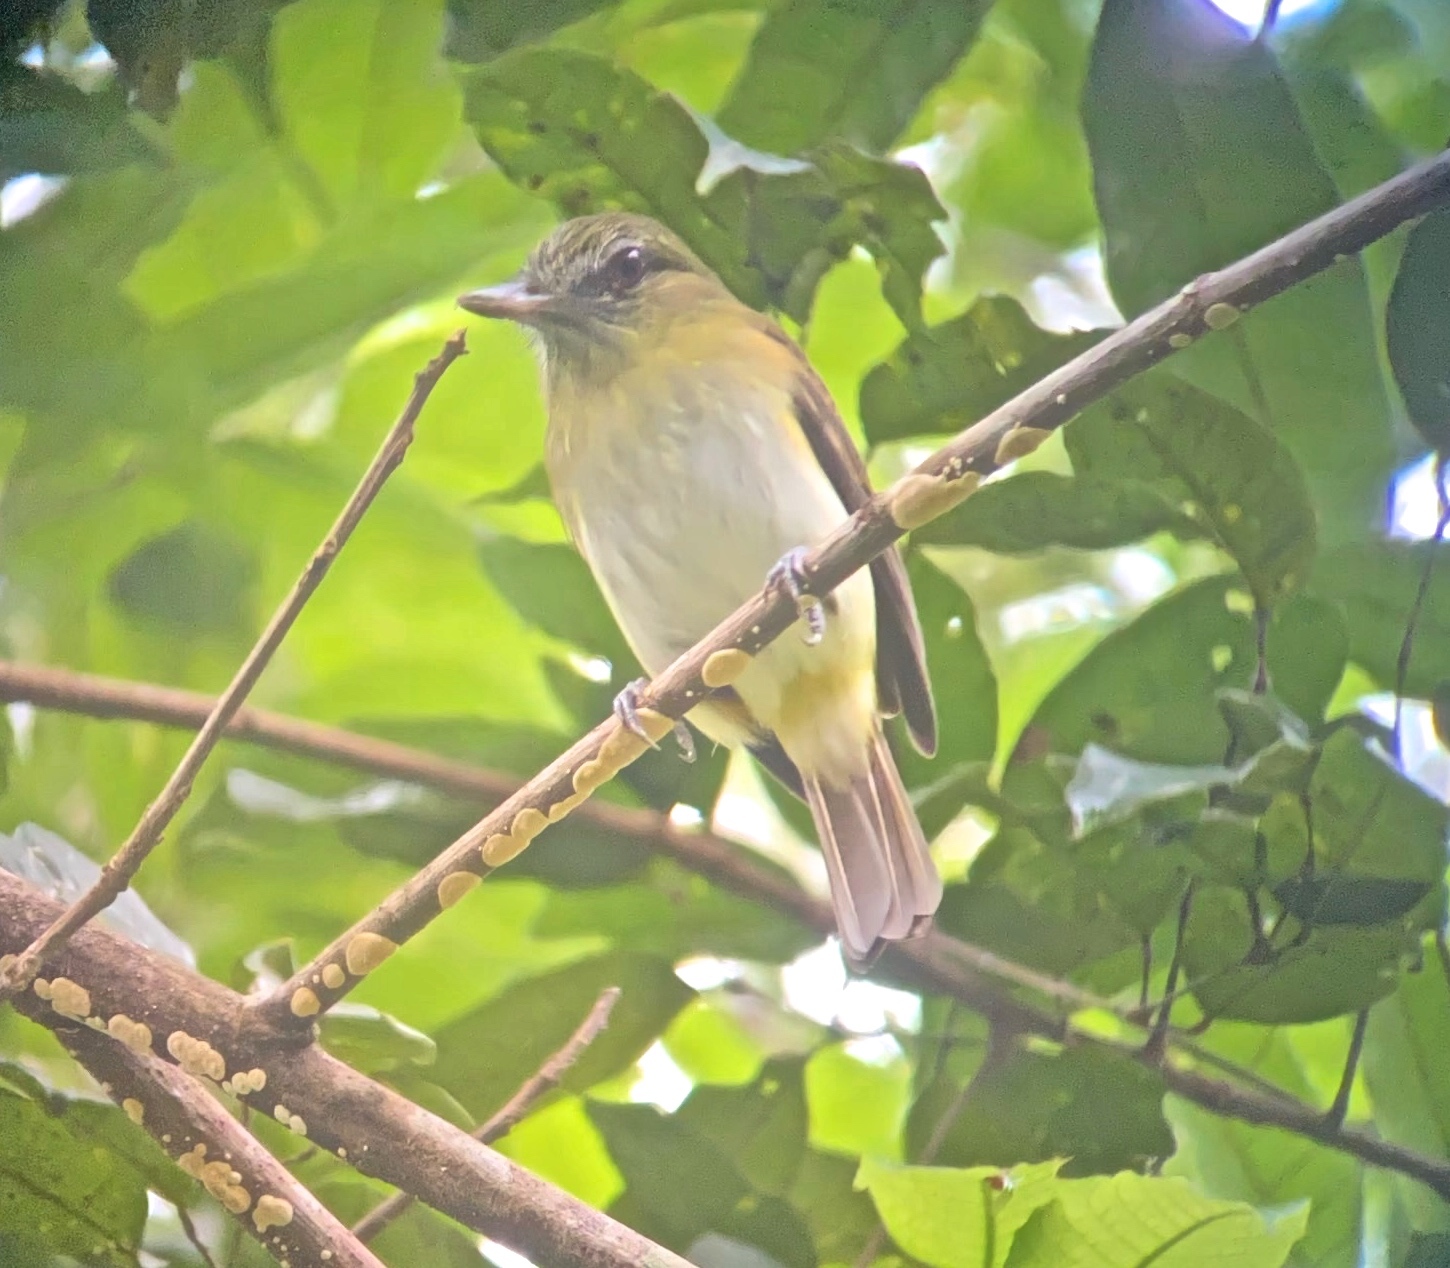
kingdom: Animalia
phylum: Chordata
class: Aves
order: Passeriformes
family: Tyrannidae
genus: Attila
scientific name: Attila spadiceus
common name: Bright-rumped attila
